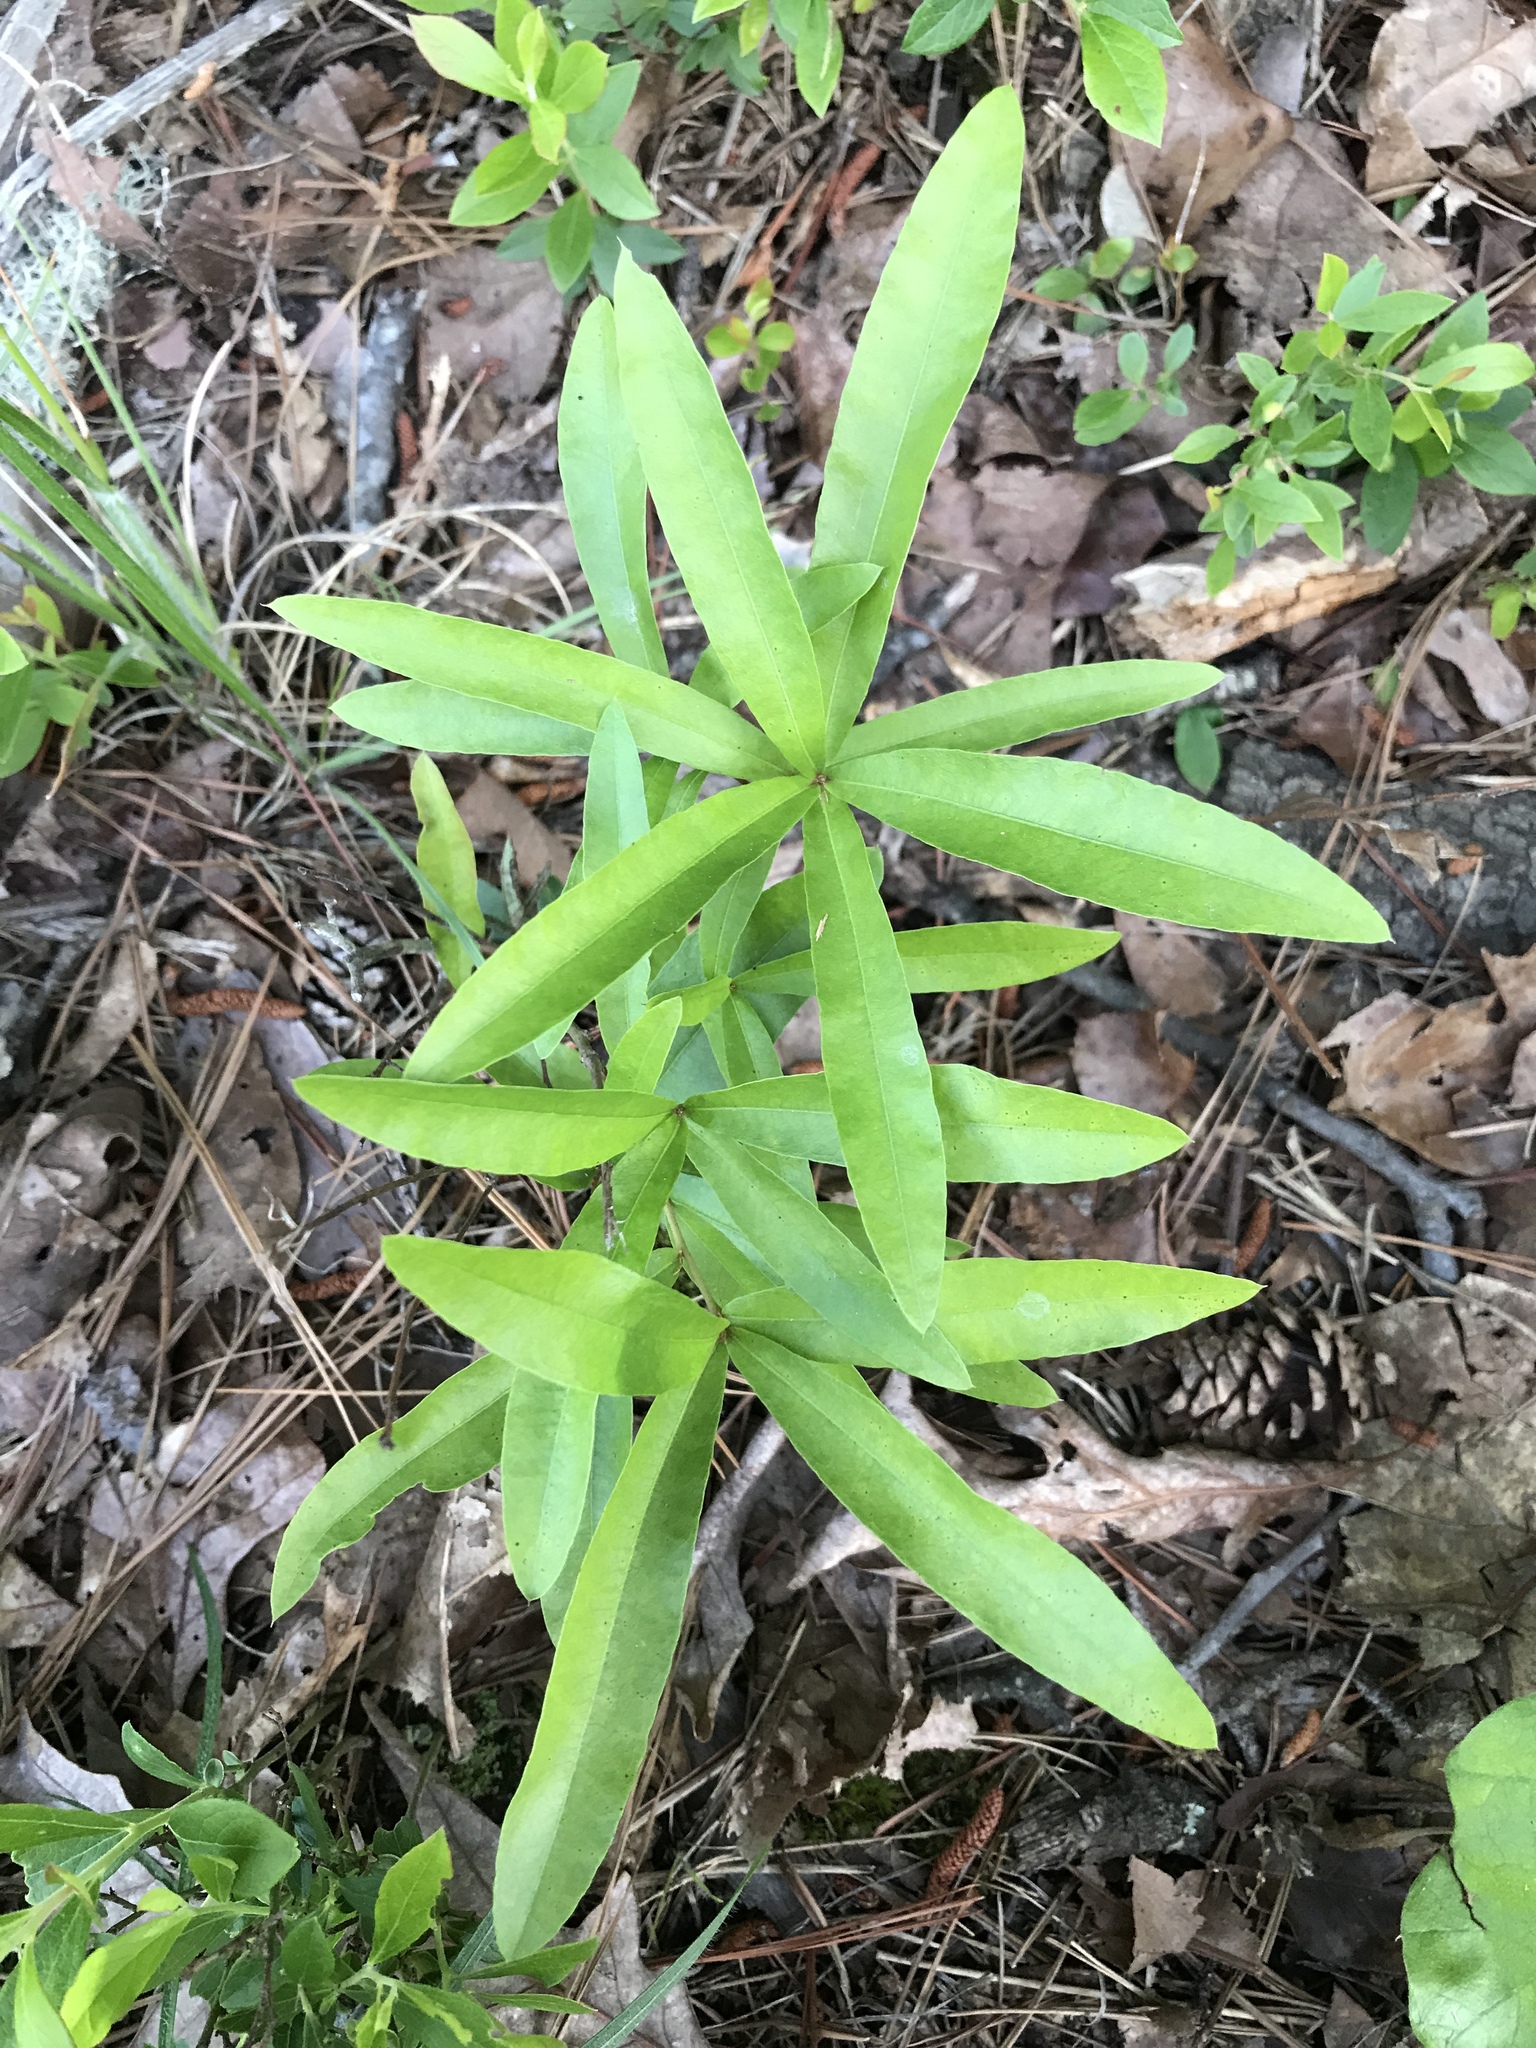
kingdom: Plantae
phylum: Tracheophyta
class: Magnoliopsida
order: Fagales
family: Fagaceae
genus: Quercus
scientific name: Quercus phellos
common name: Willow oak
